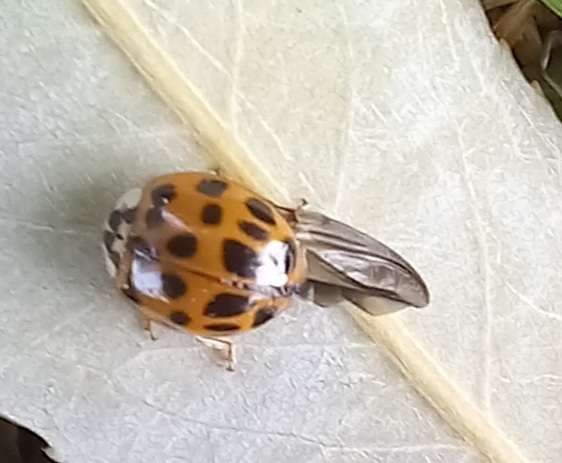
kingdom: Animalia
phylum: Arthropoda
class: Insecta
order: Coleoptera
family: Coccinellidae
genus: Harmonia
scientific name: Harmonia axyridis
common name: Harlequin ladybird
